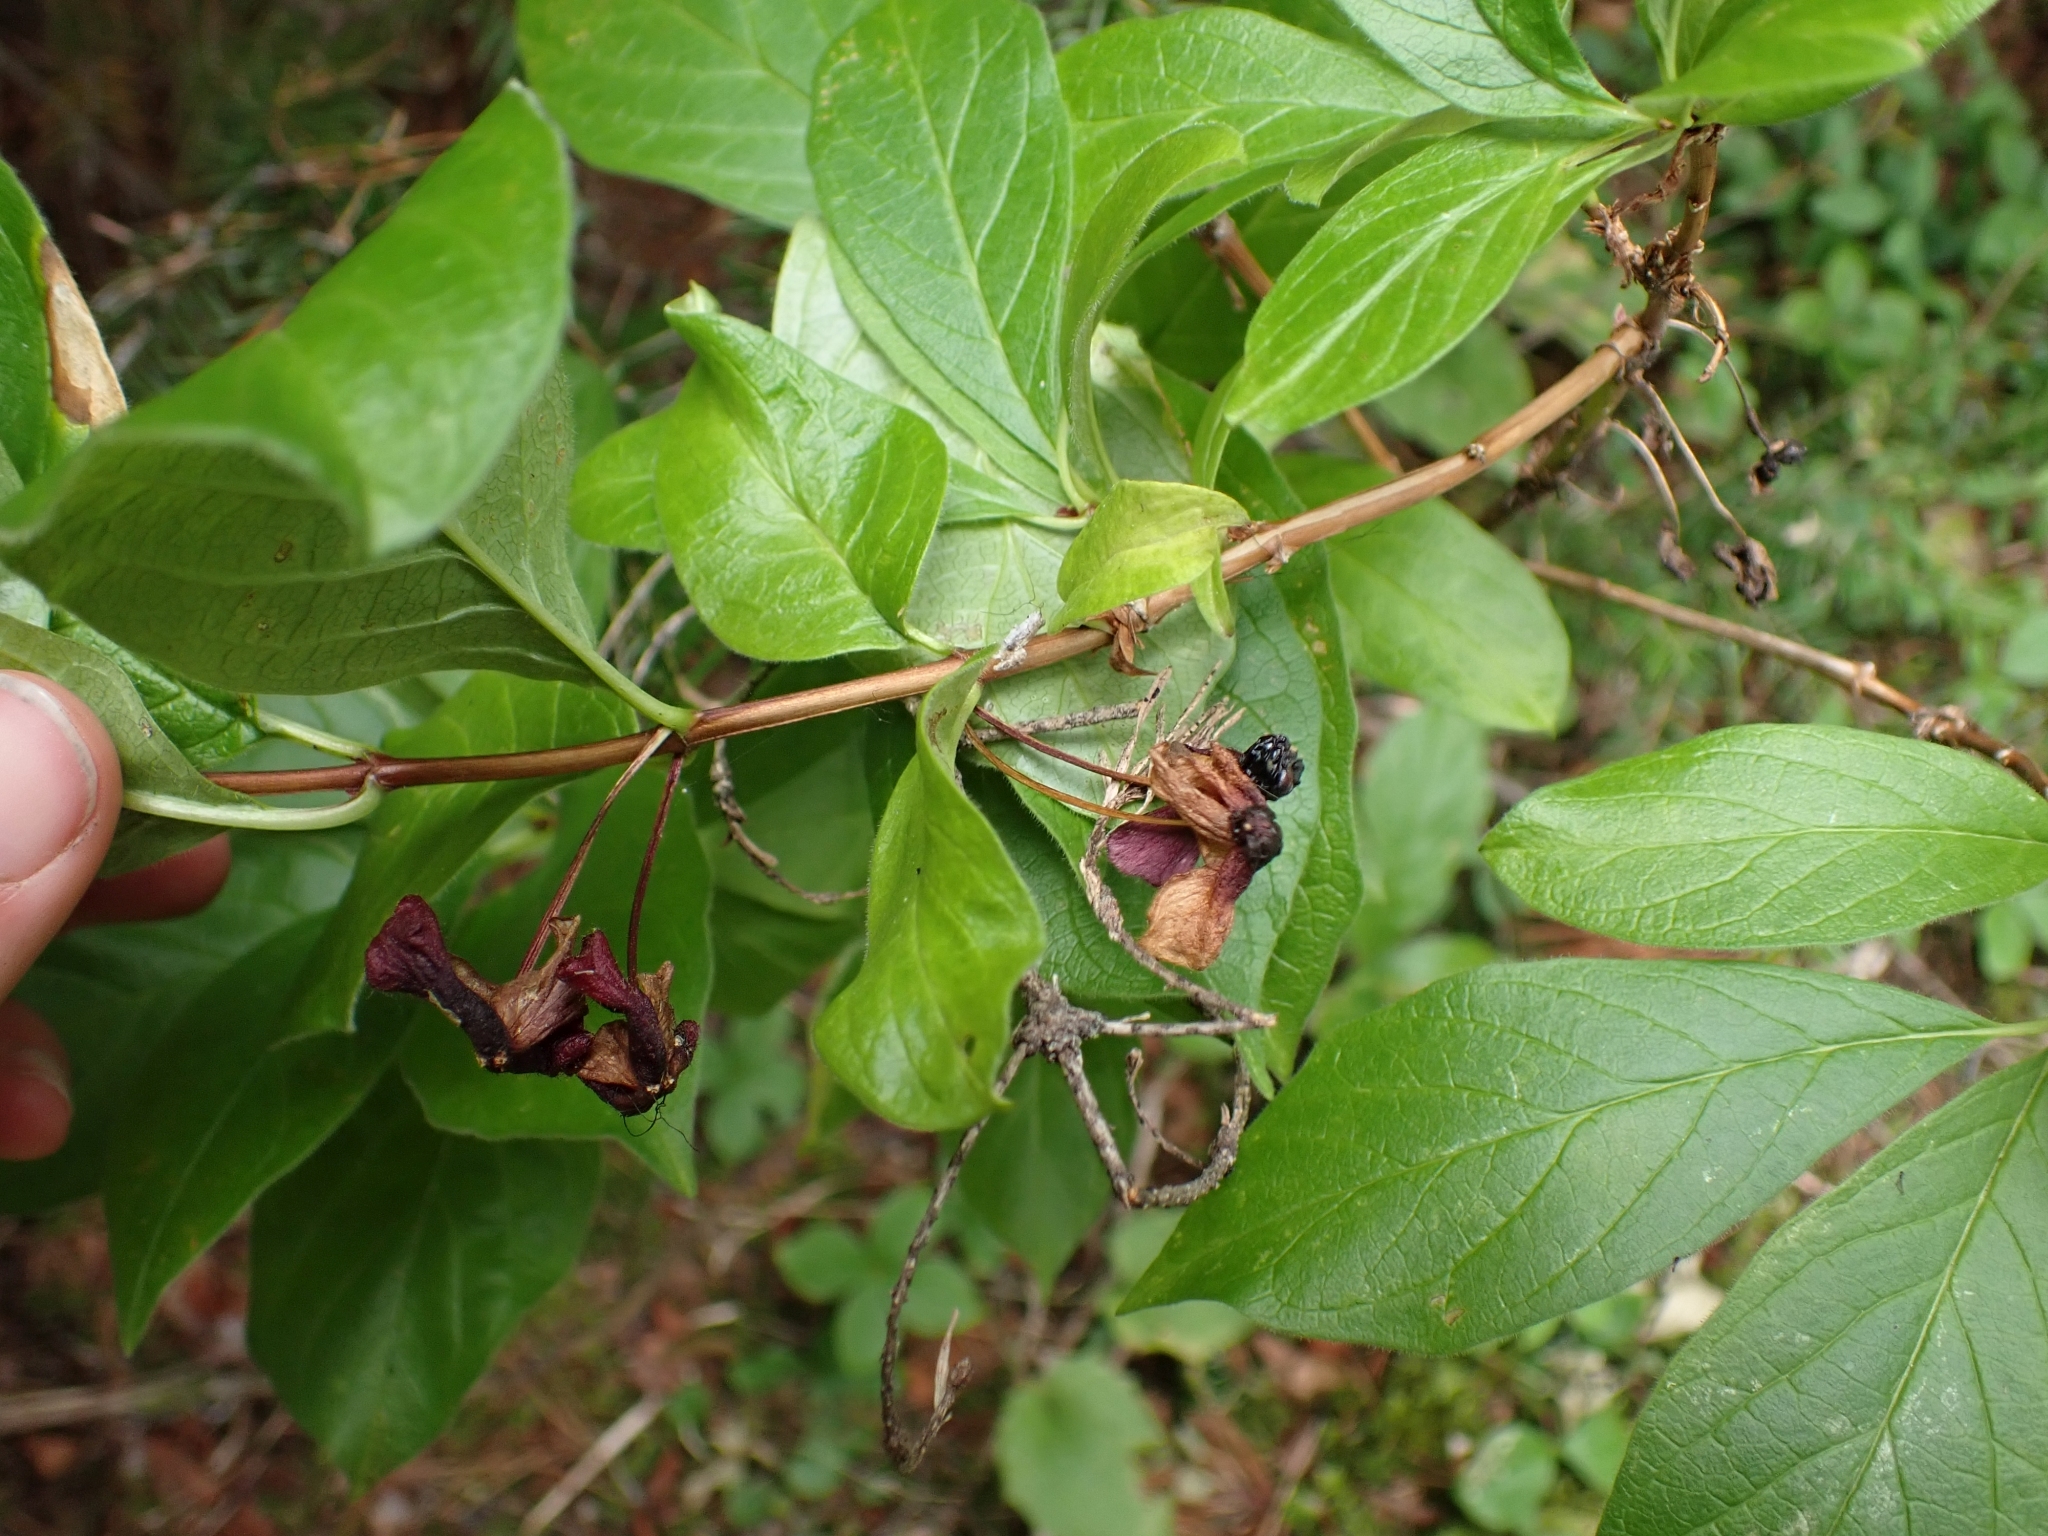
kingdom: Plantae
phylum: Tracheophyta
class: Magnoliopsida
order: Dipsacales
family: Caprifoliaceae
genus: Lonicera
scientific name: Lonicera involucrata
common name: Californian honeysuckle
